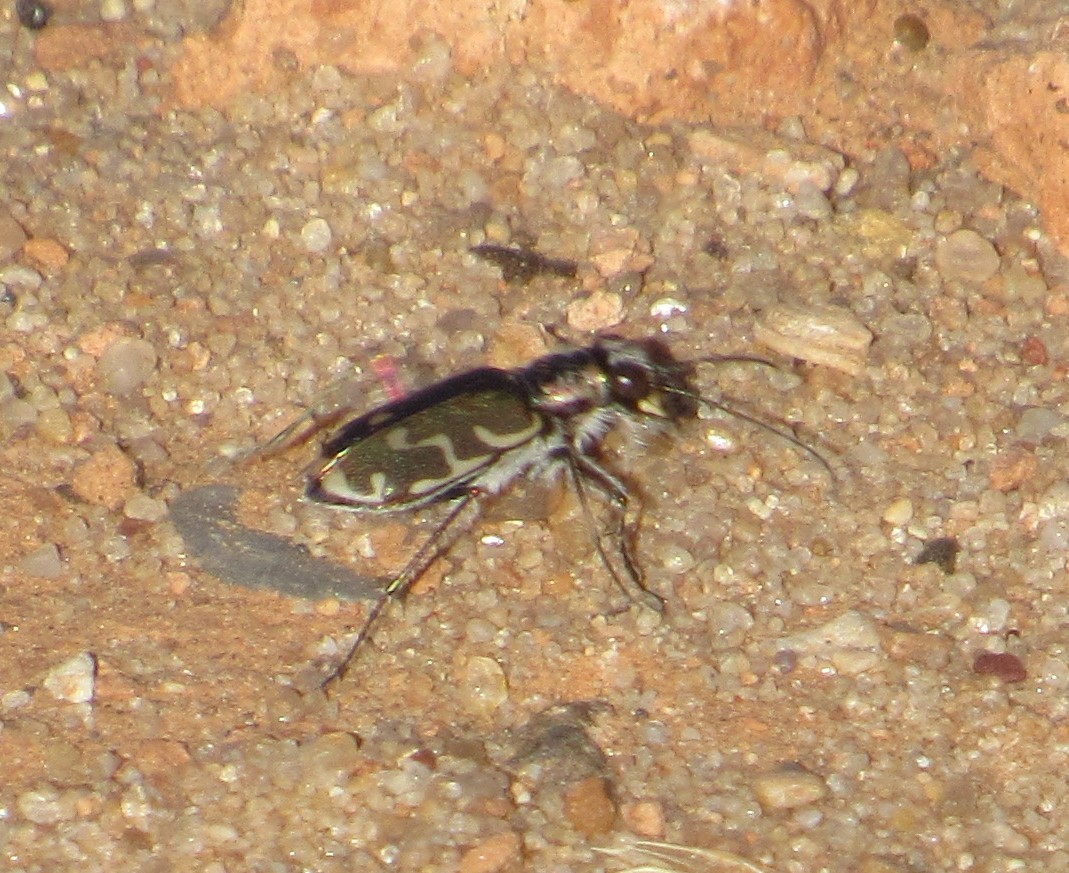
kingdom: Animalia
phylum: Arthropoda
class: Insecta
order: Coleoptera
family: Carabidae
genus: Cicindela
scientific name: Cicindela repanda
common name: Bronzed tiger beetle
